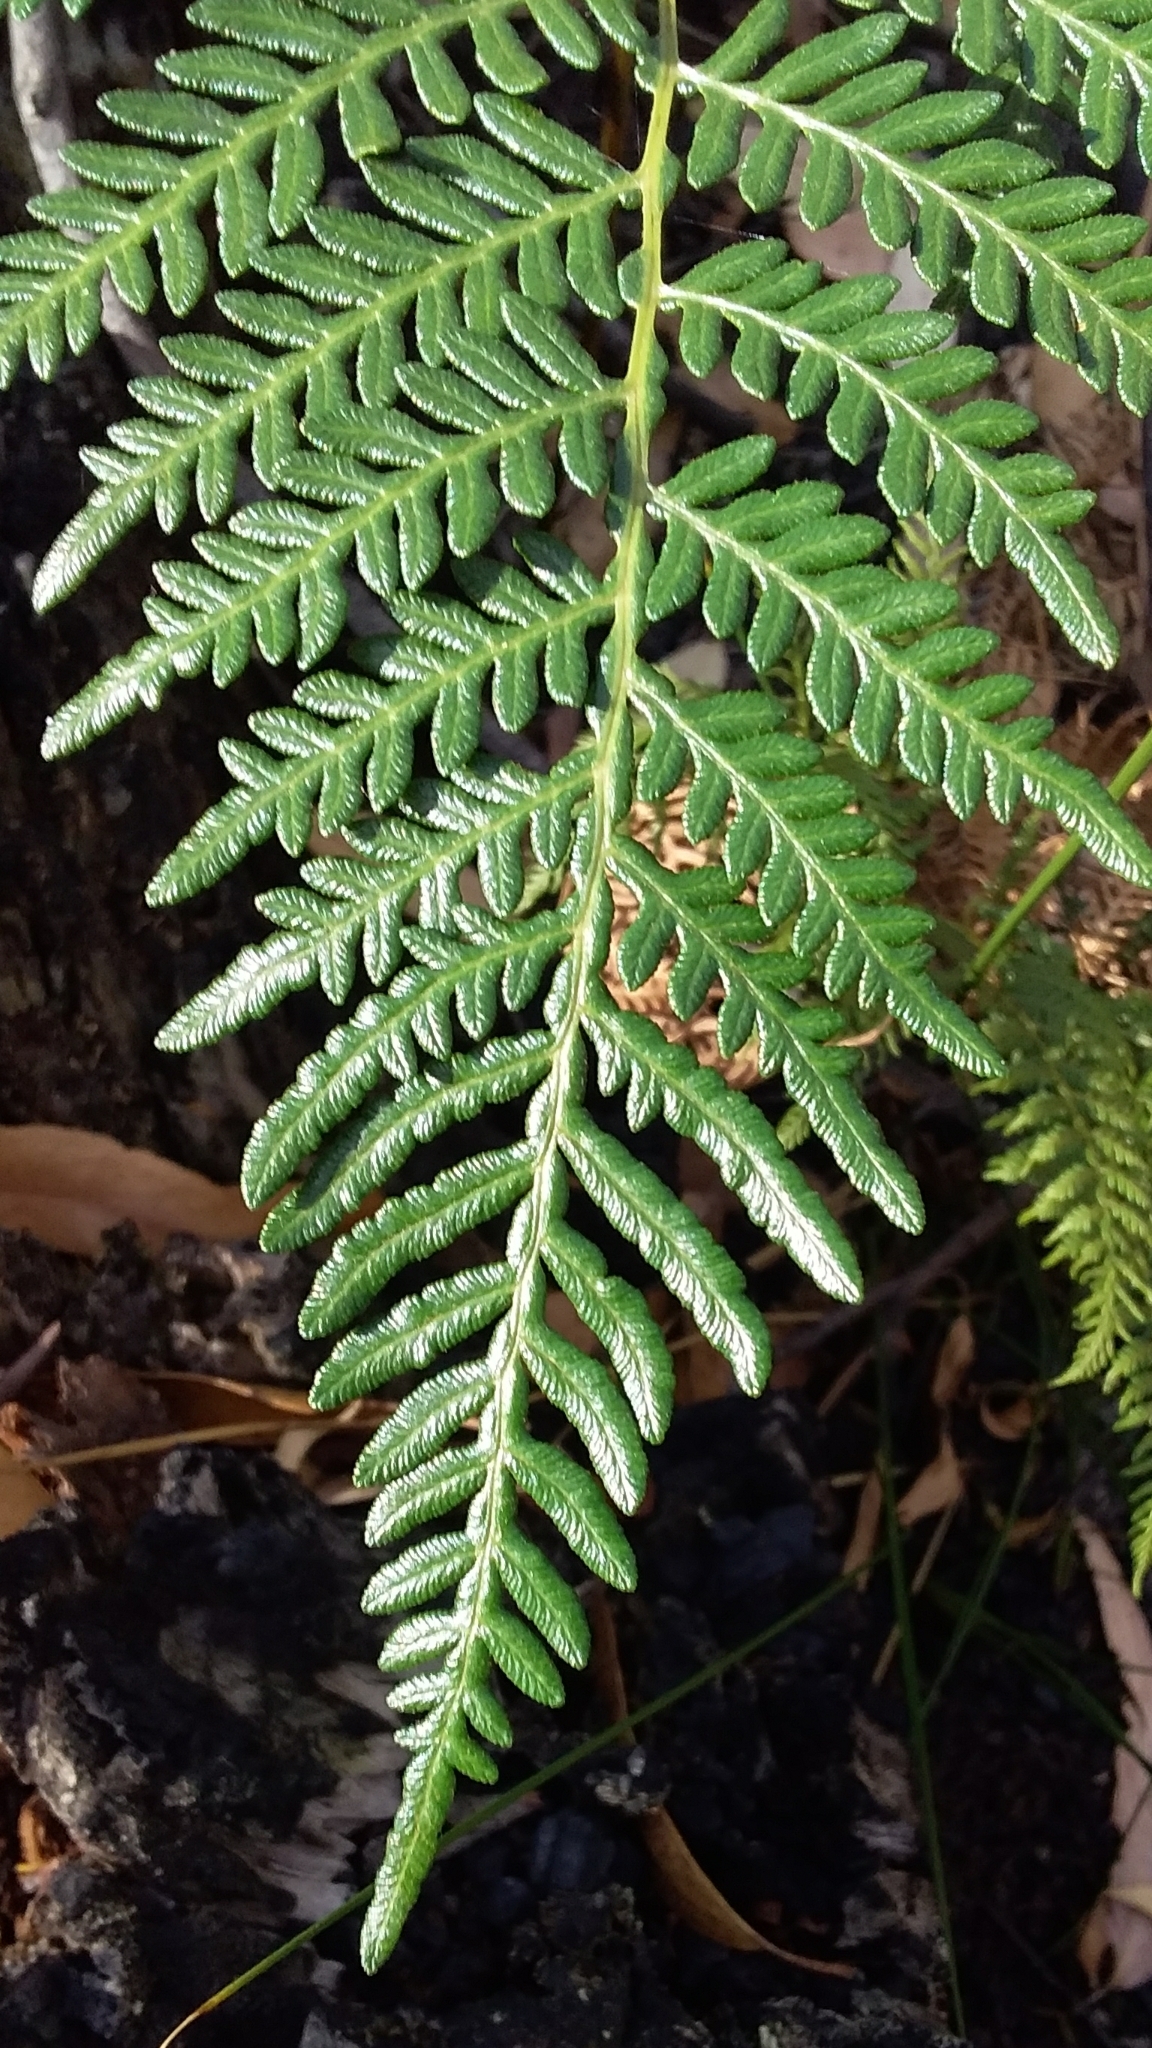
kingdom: Plantae
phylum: Tracheophyta
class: Polypodiopsida
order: Polypodiales
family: Dennstaedtiaceae
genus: Pteridium
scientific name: Pteridium esculentum
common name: Bracken fern
